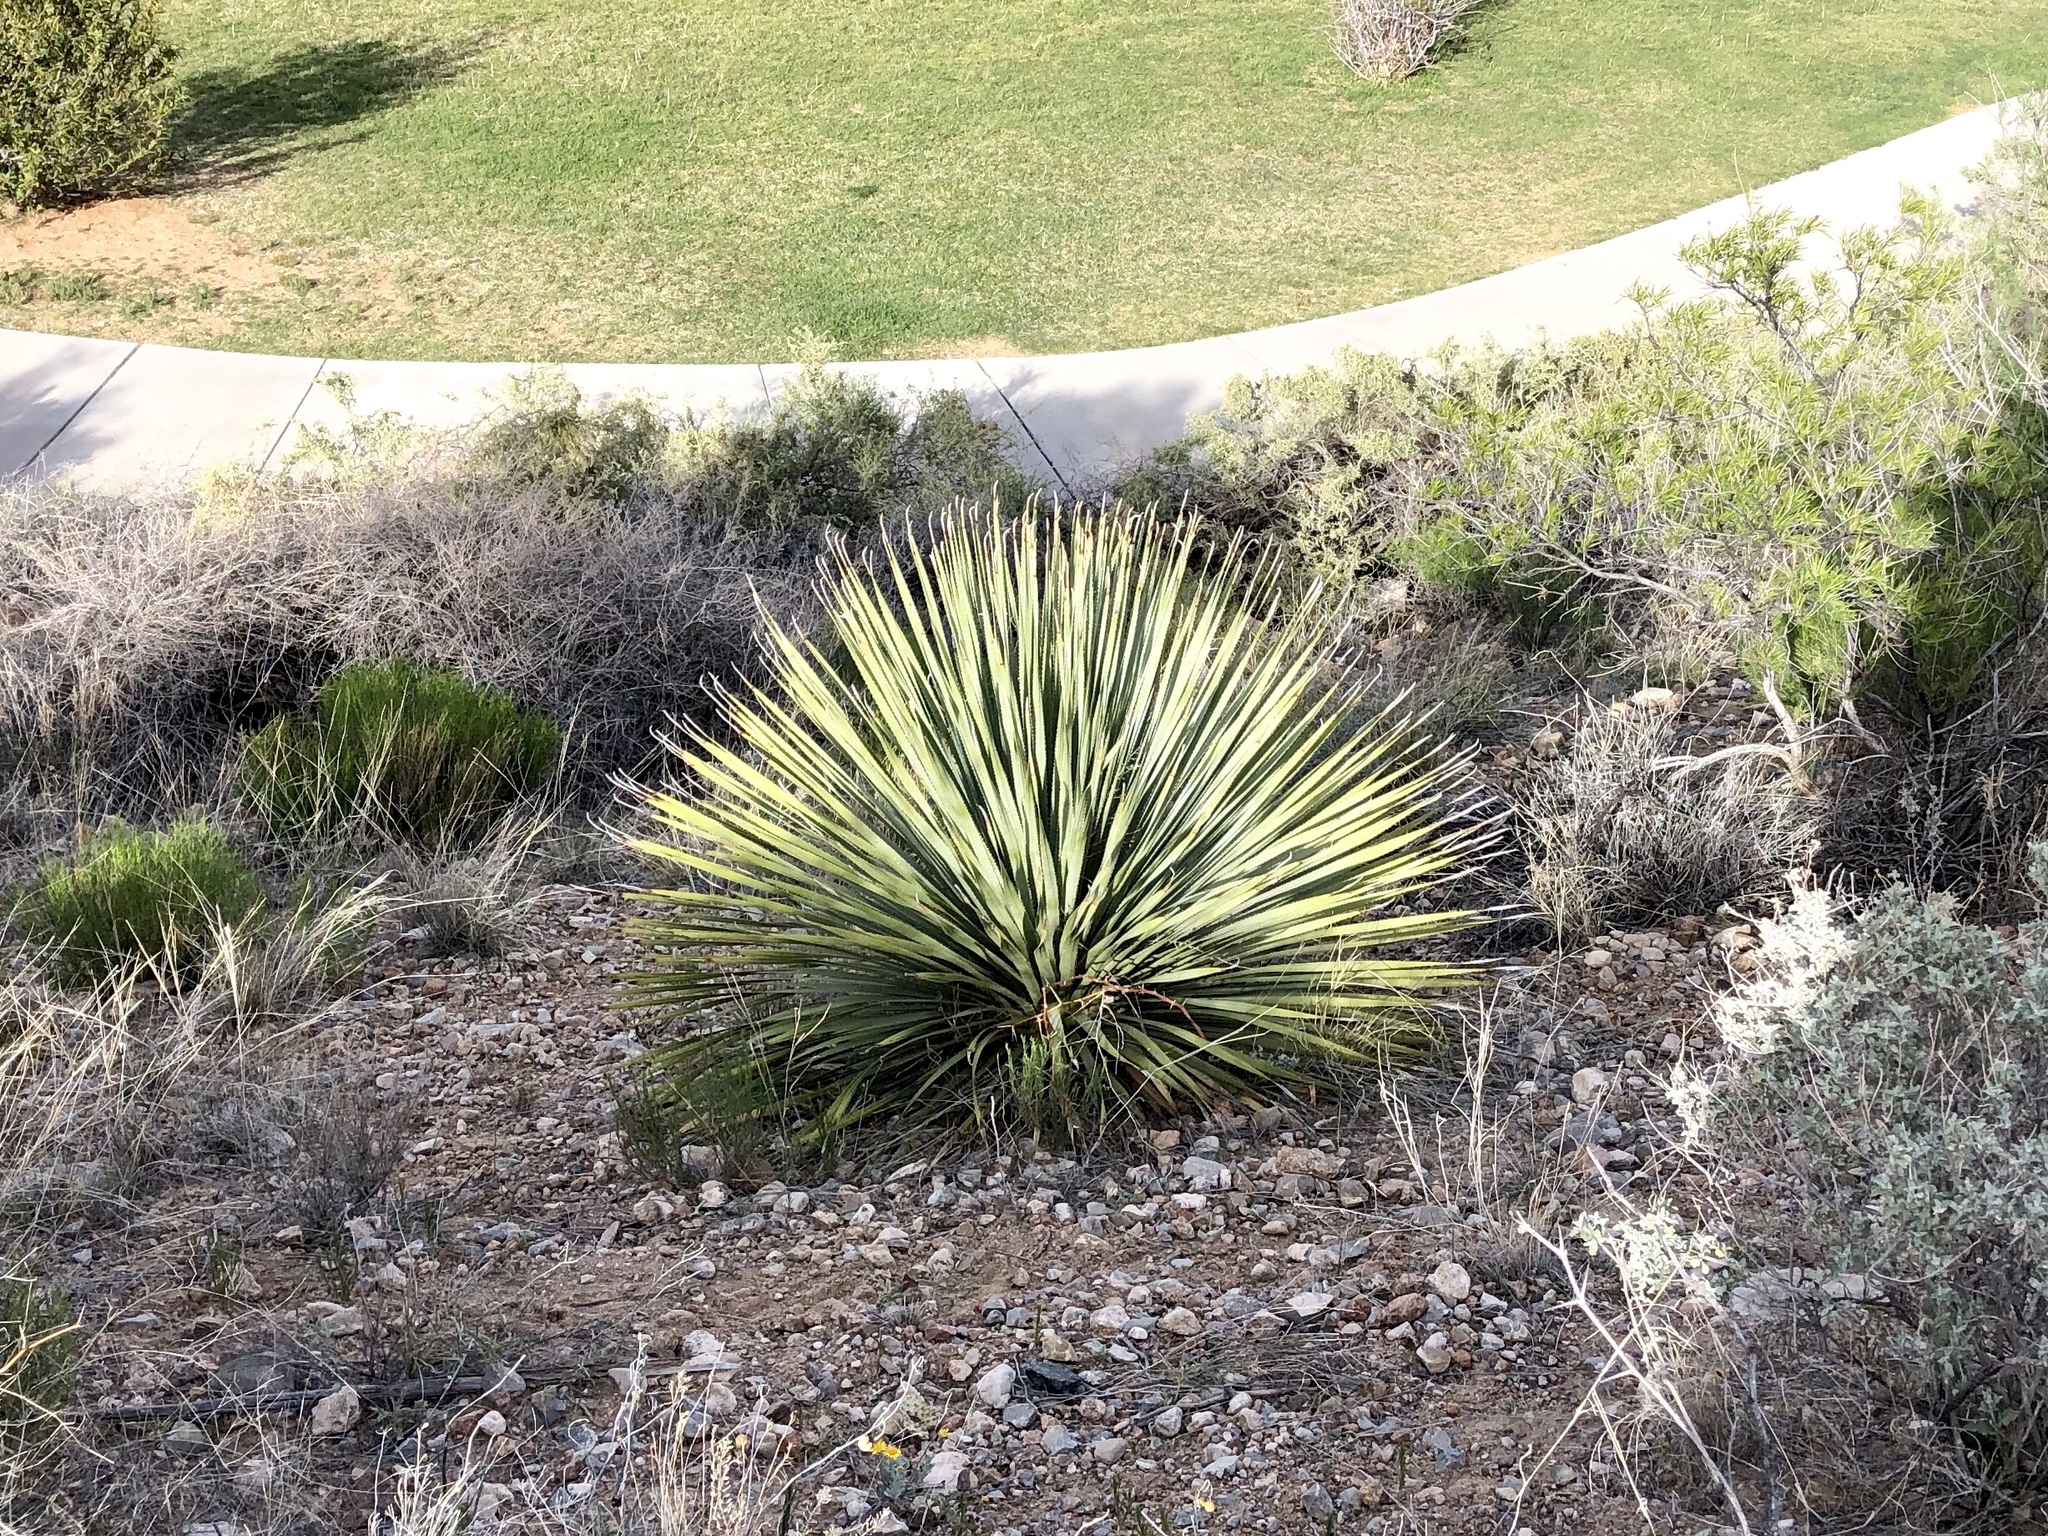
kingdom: Plantae
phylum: Tracheophyta
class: Liliopsida
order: Asparagales
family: Asparagaceae
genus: Dasylirion
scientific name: Dasylirion wheeleri
